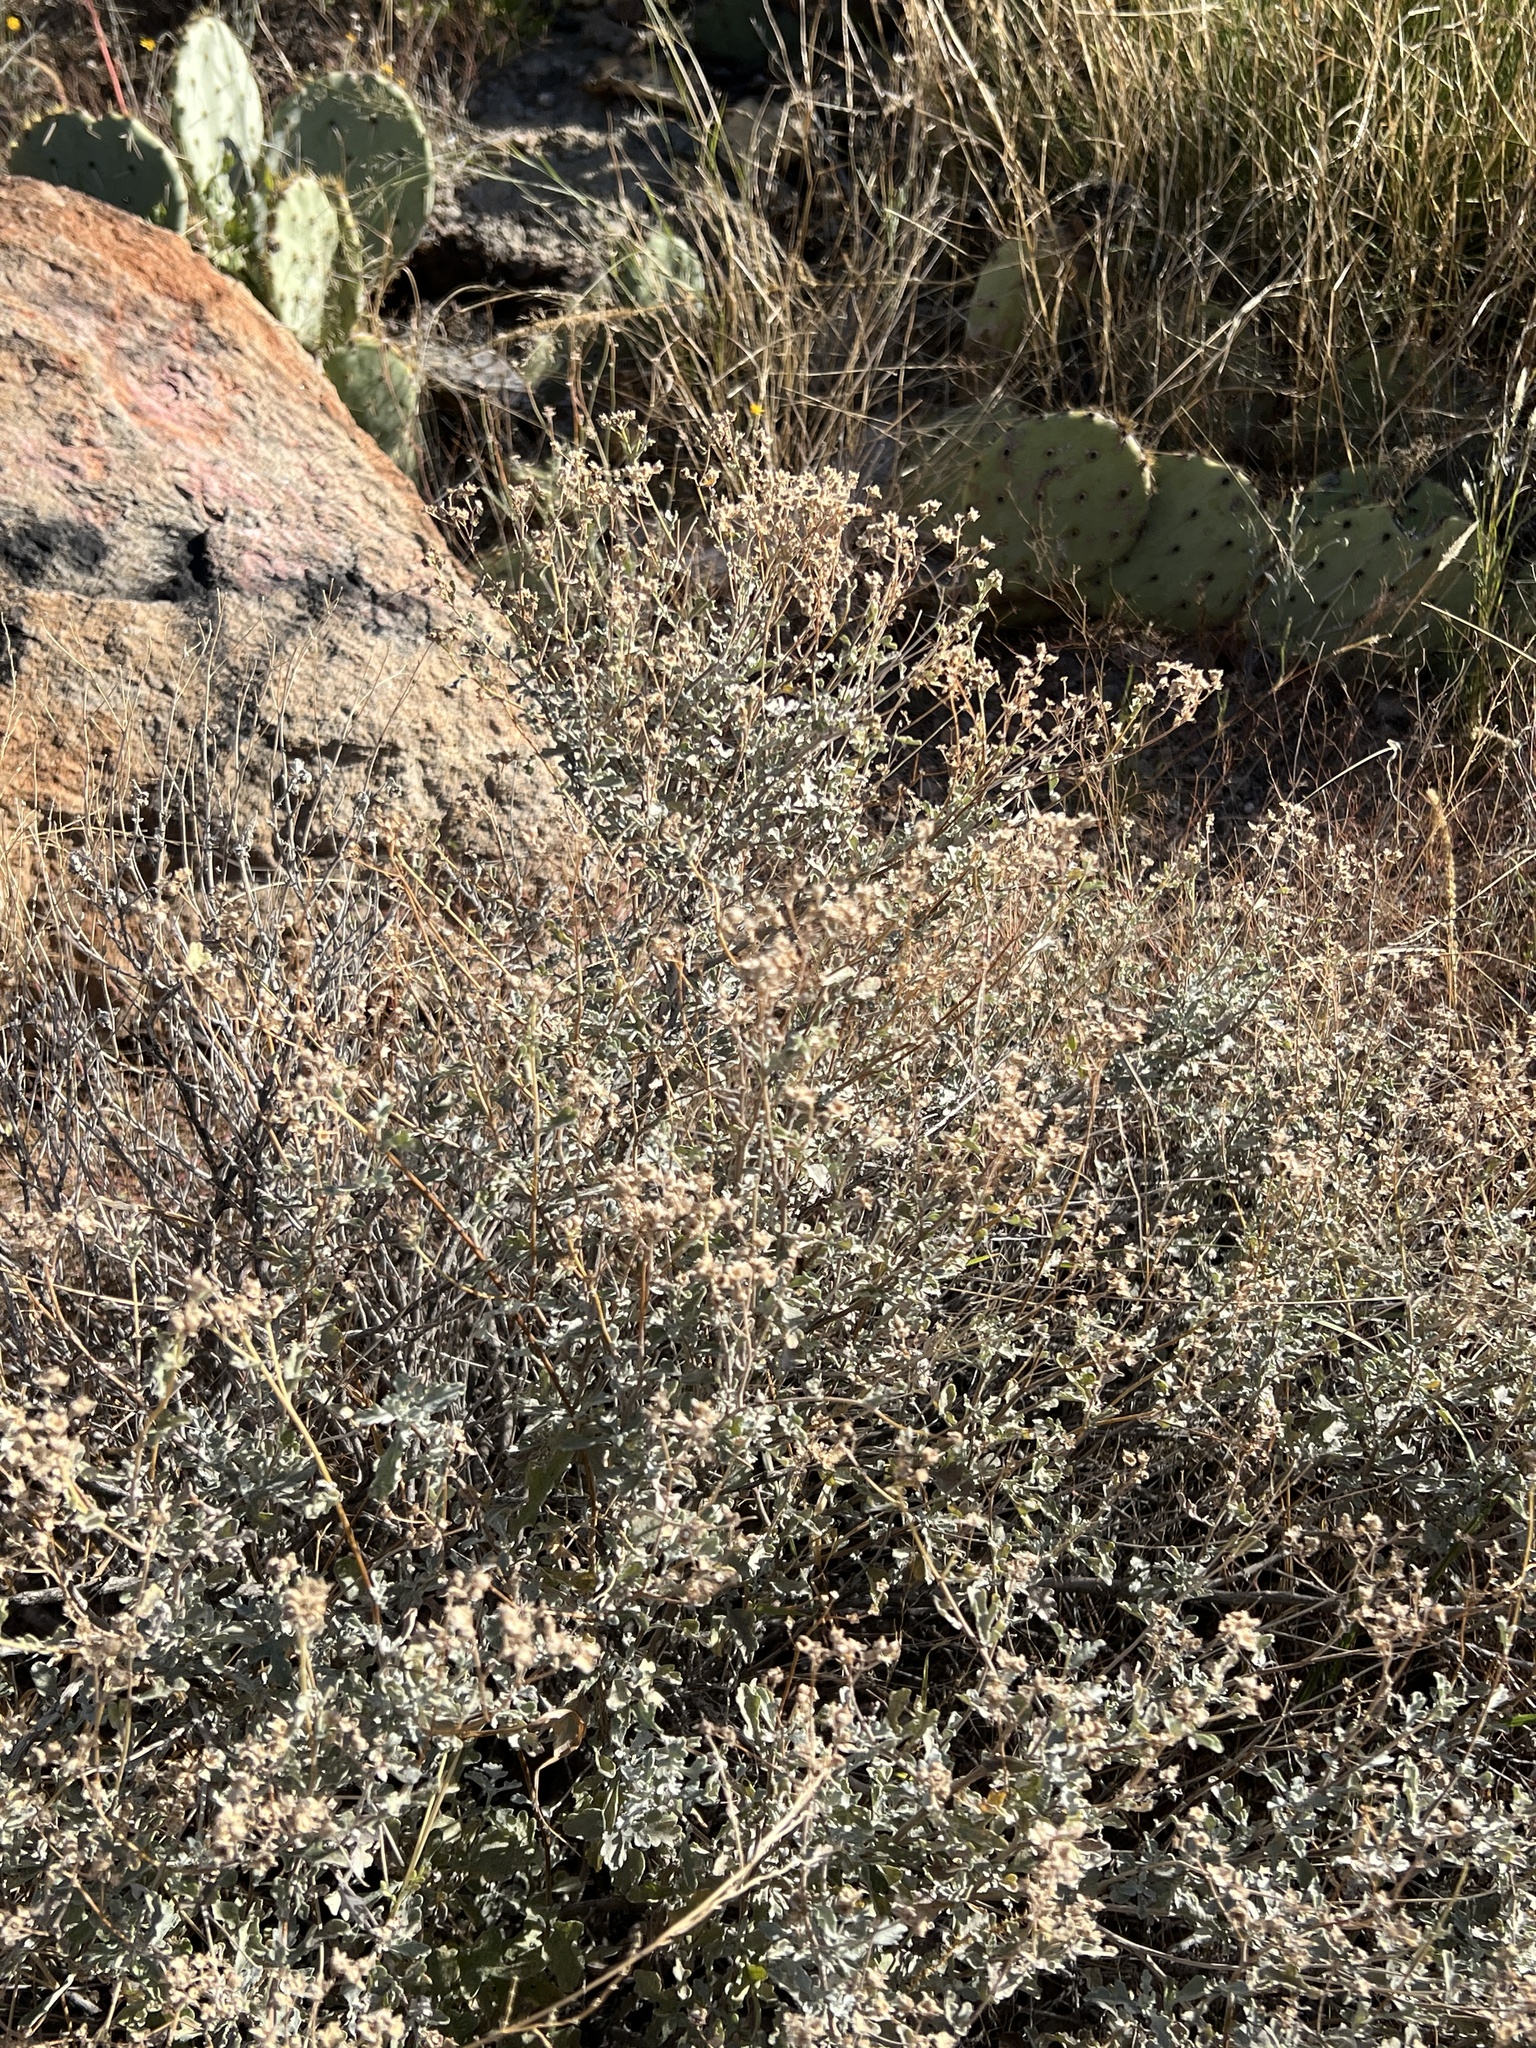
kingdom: Plantae
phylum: Tracheophyta
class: Magnoliopsida
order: Asterales
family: Asteraceae
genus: Parthenium
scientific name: Parthenium incanum
